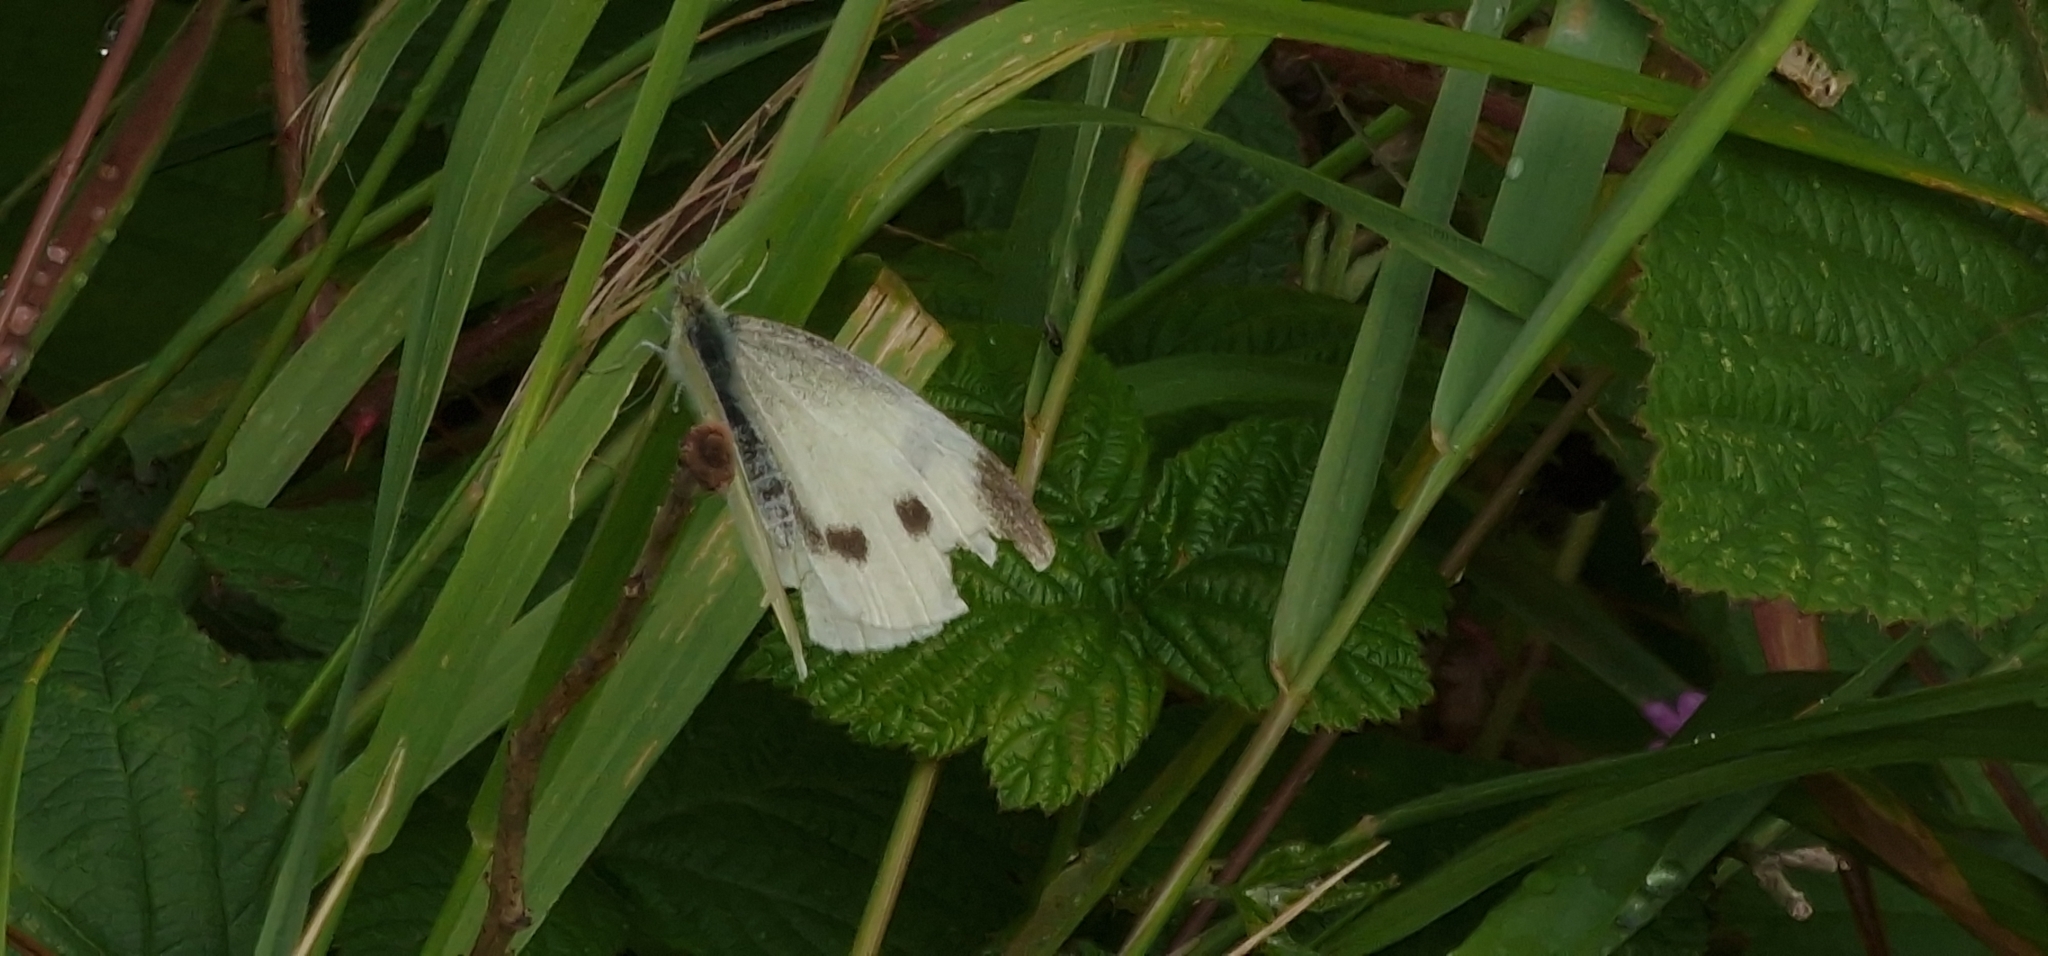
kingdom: Animalia
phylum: Arthropoda
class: Insecta
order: Lepidoptera
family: Pieridae
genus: Pieris
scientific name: Pieris rapae
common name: Small white
